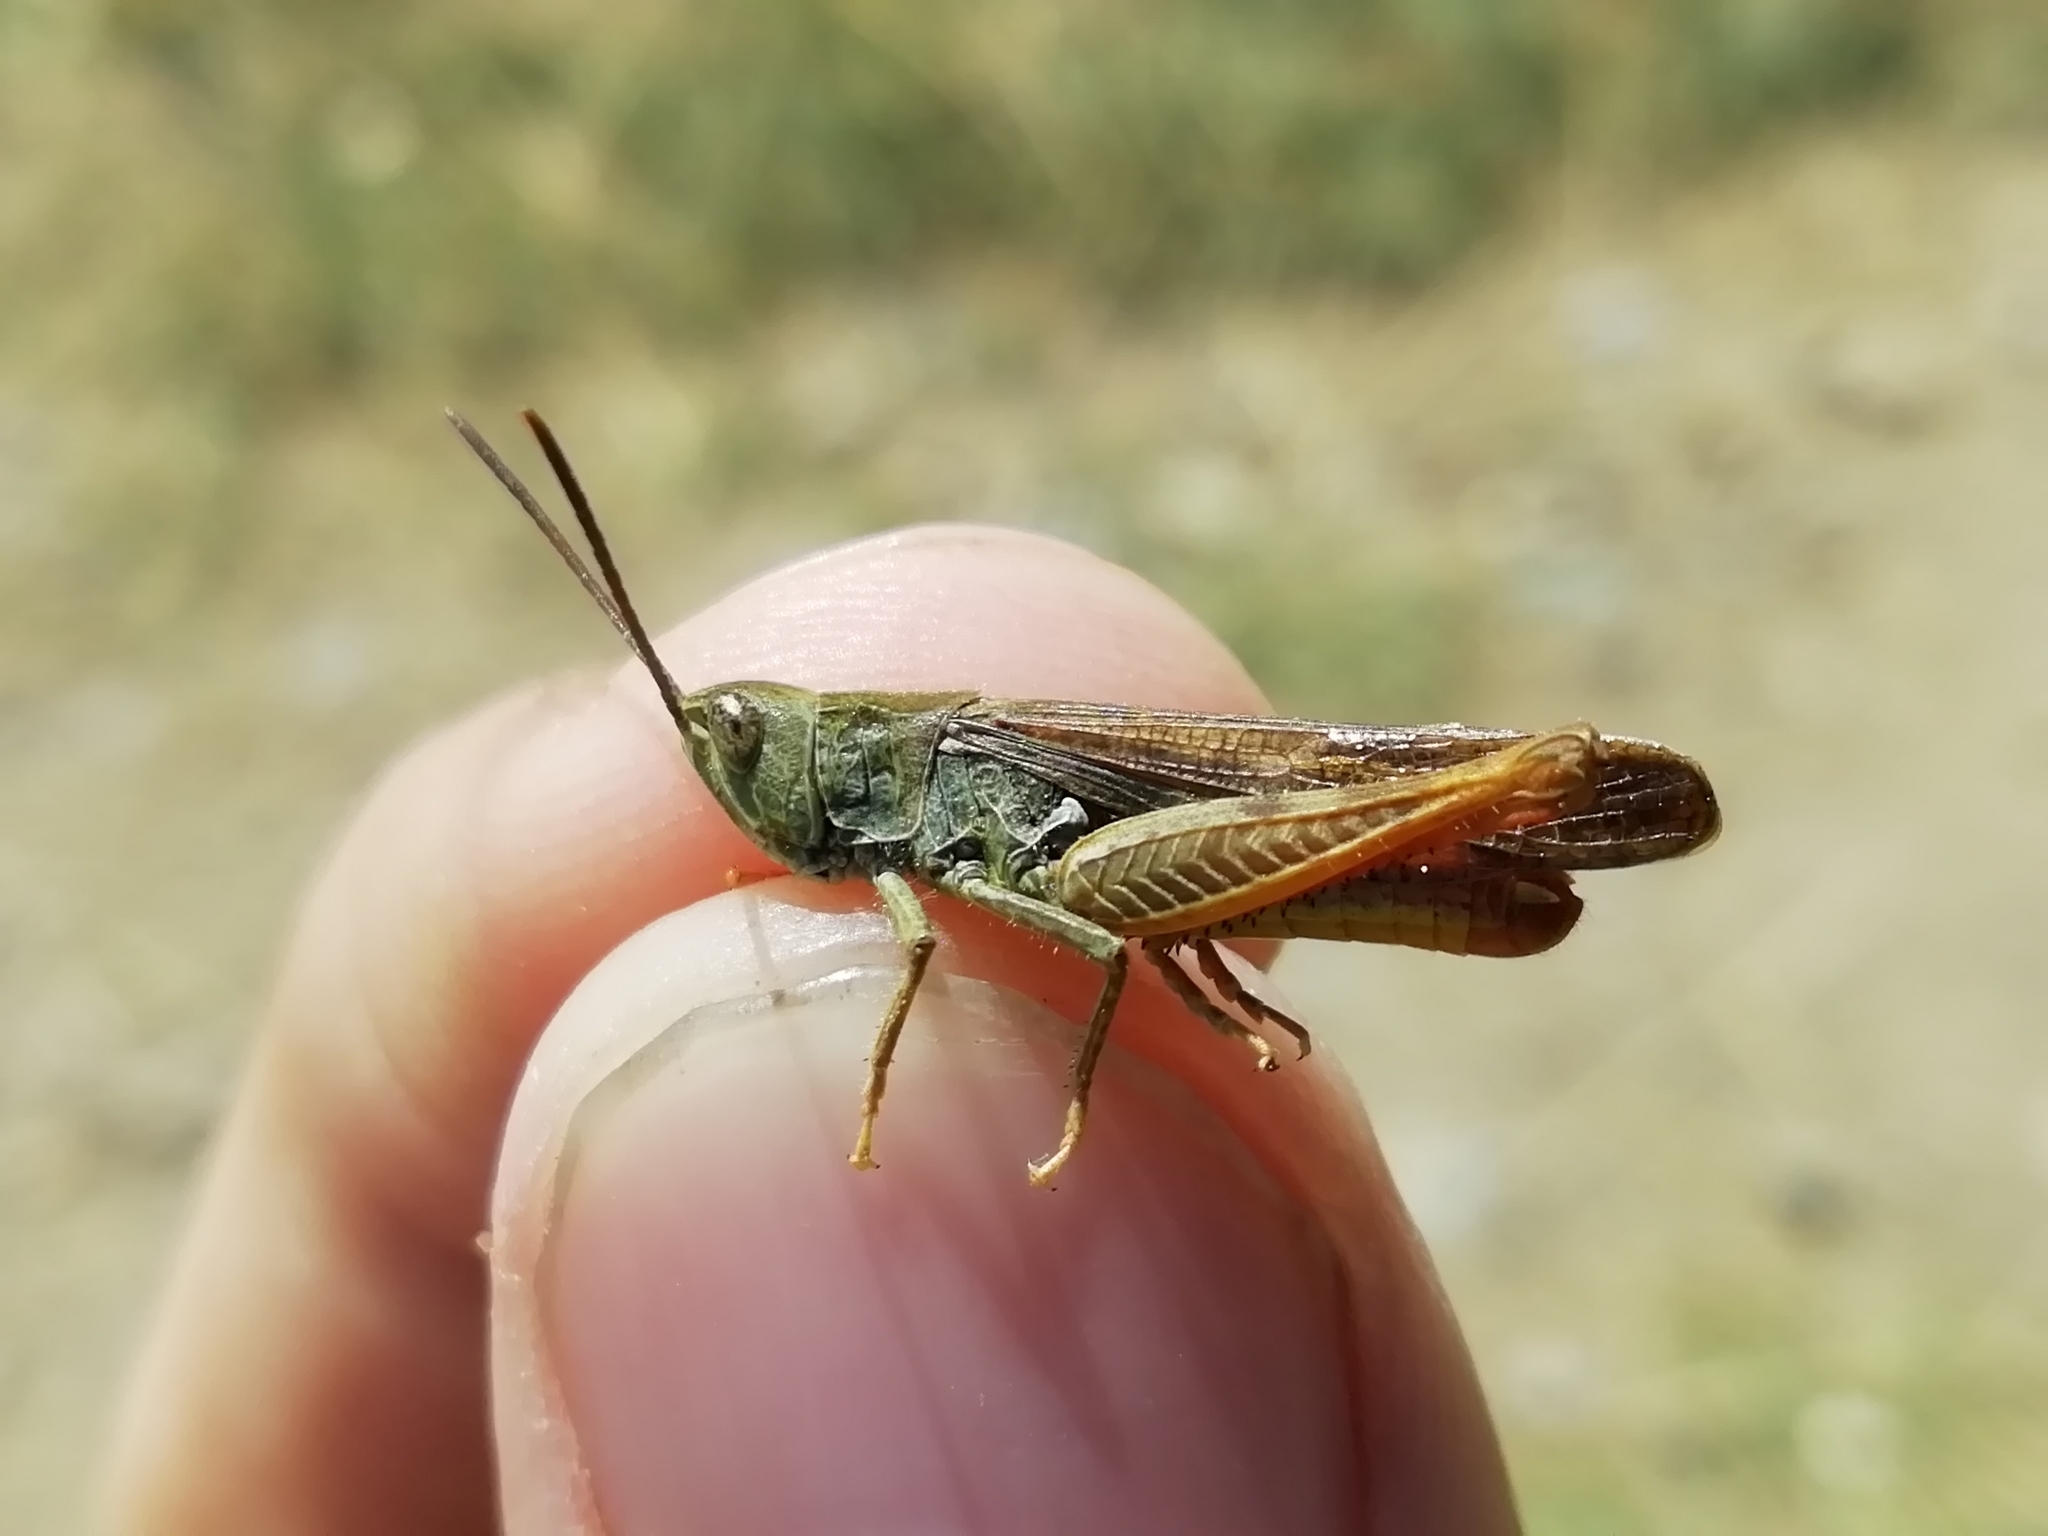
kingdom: Animalia
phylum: Arthropoda
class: Insecta
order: Orthoptera
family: Acrididae
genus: Chorthippus
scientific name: Chorthippus miramae
